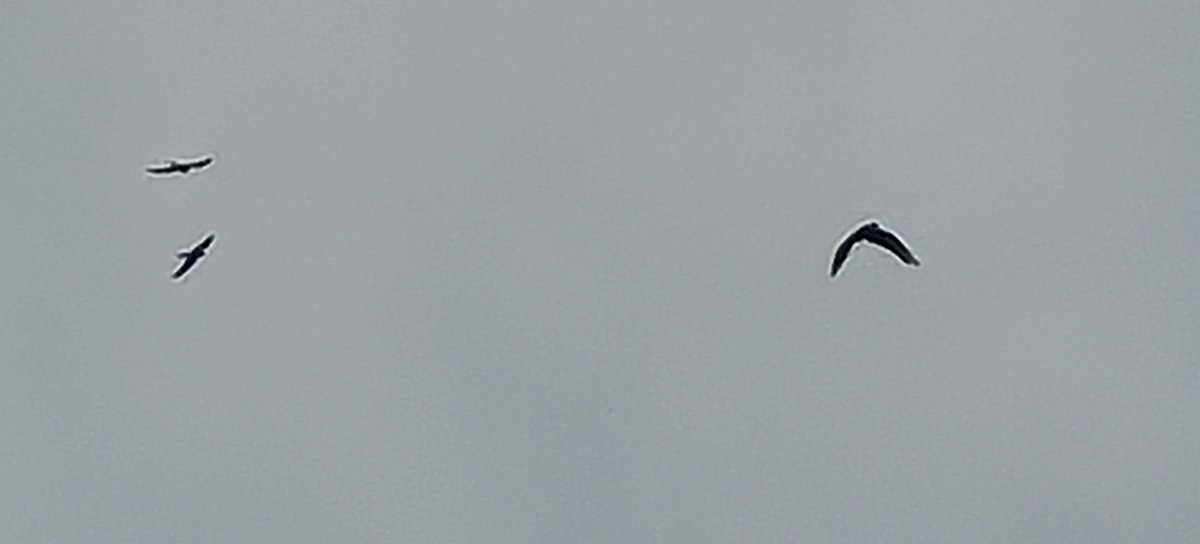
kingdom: Animalia
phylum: Chordata
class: Aves
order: Falconiformes
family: Falconidae
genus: Falco
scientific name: Falco peregrinus
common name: Peregrine falcon
